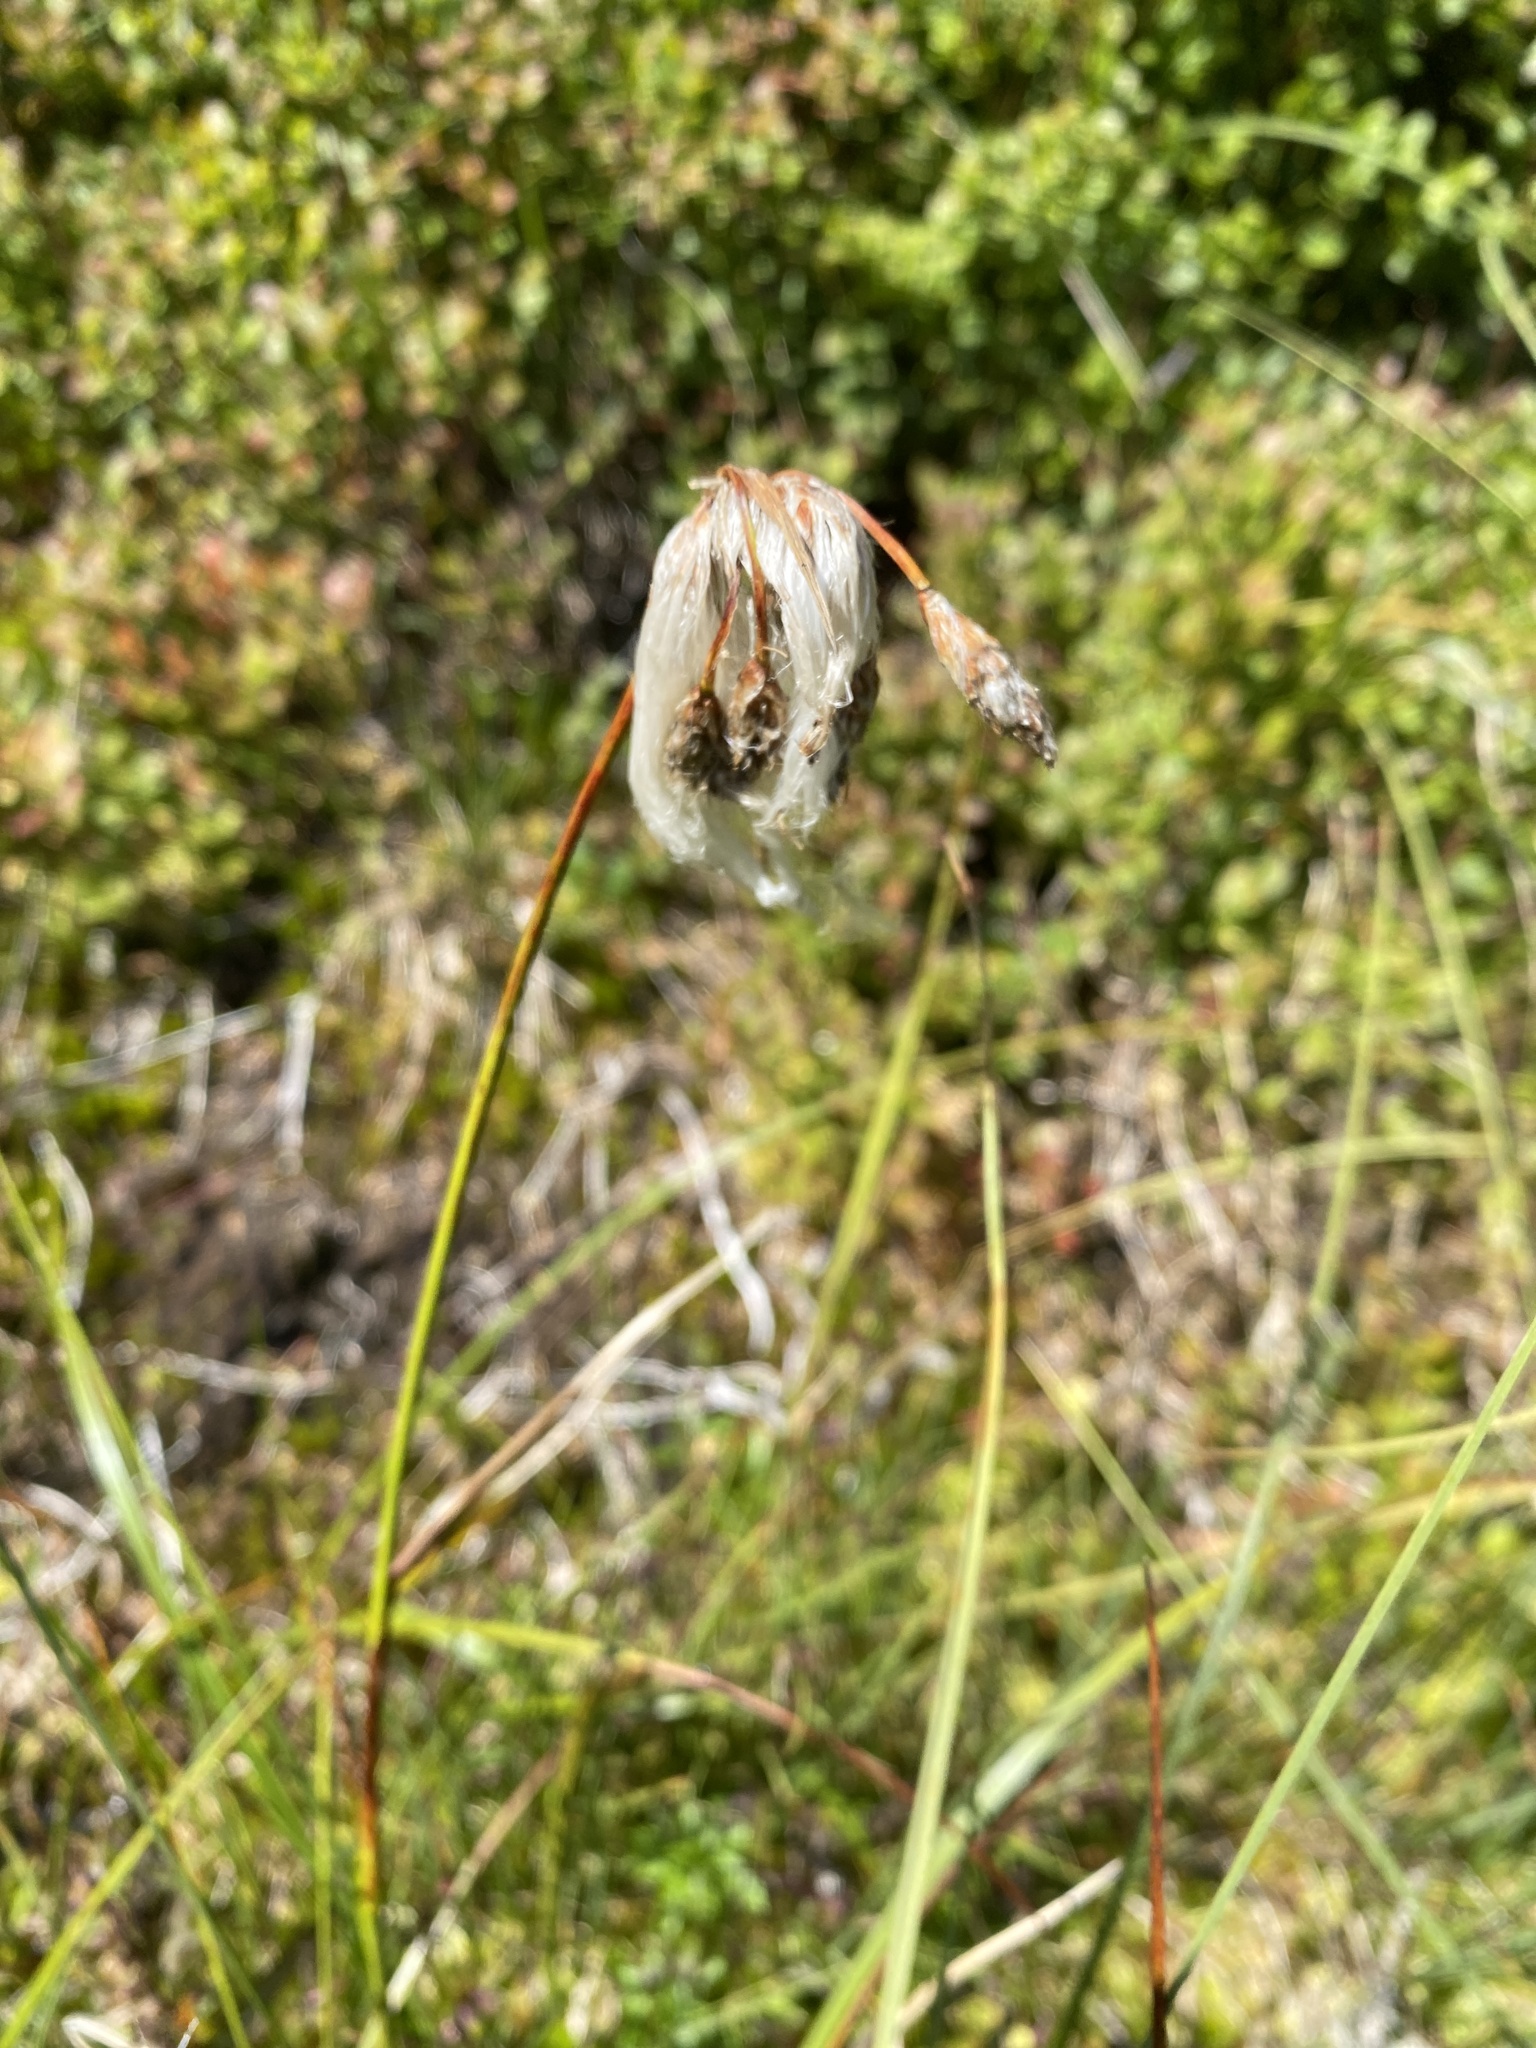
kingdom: Plantae
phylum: Tracheophyta
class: Liliopsida
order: Poales
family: Cyperaceae
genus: Eriophorum
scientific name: Eriophorum angustifolium
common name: Common cottongrass
